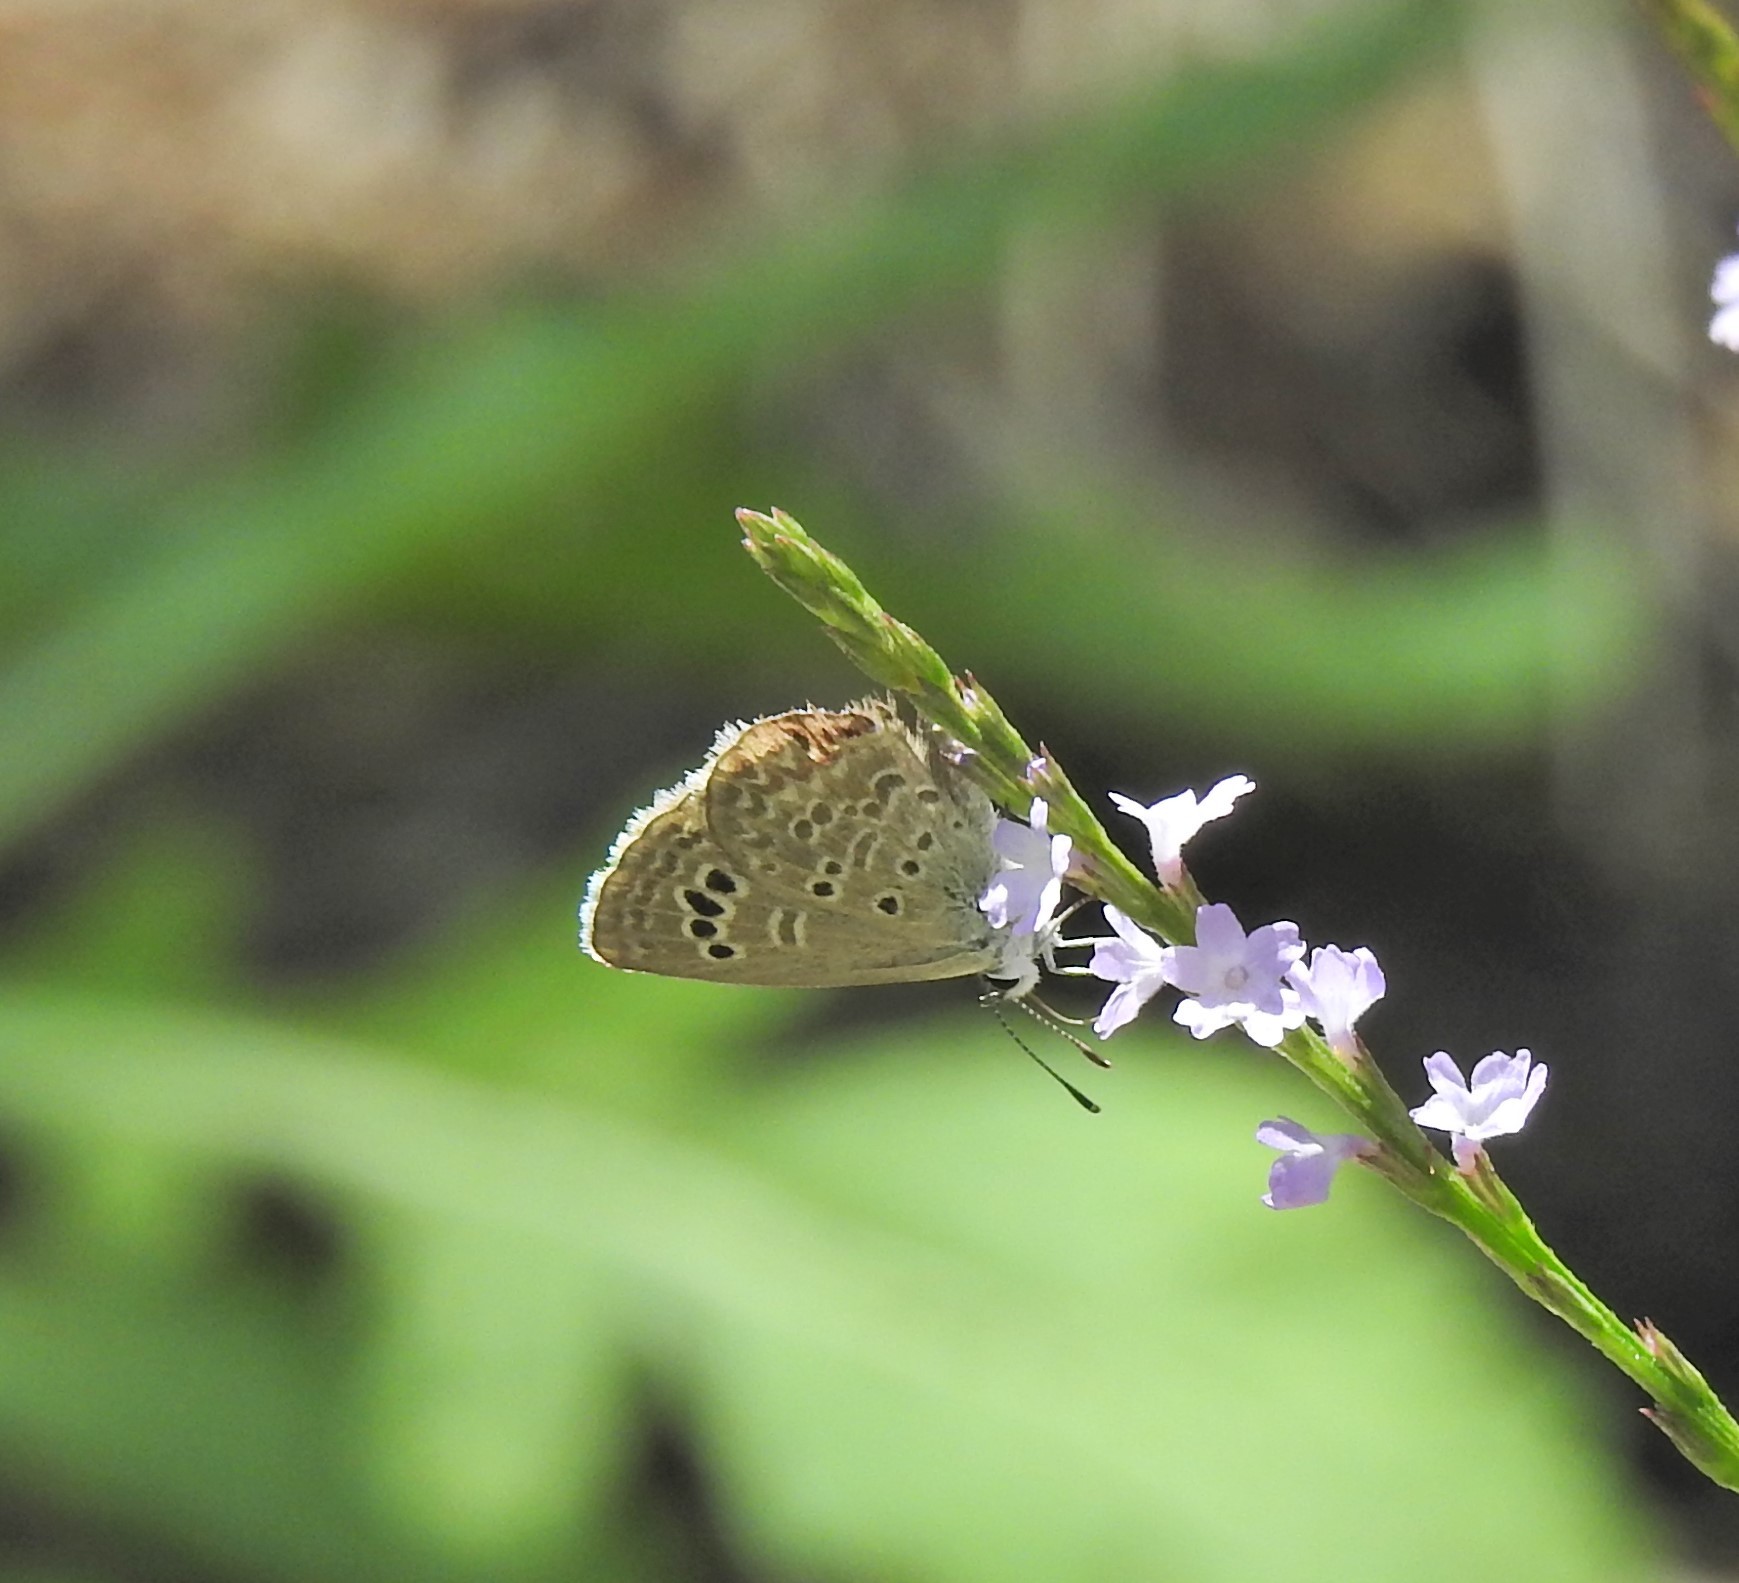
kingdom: Animalia
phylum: Arthropoda
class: Insecta
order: Lepidoptera
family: Lycaenidae
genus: Echinargus
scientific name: Echinargus isola
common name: Reakirt's blue
